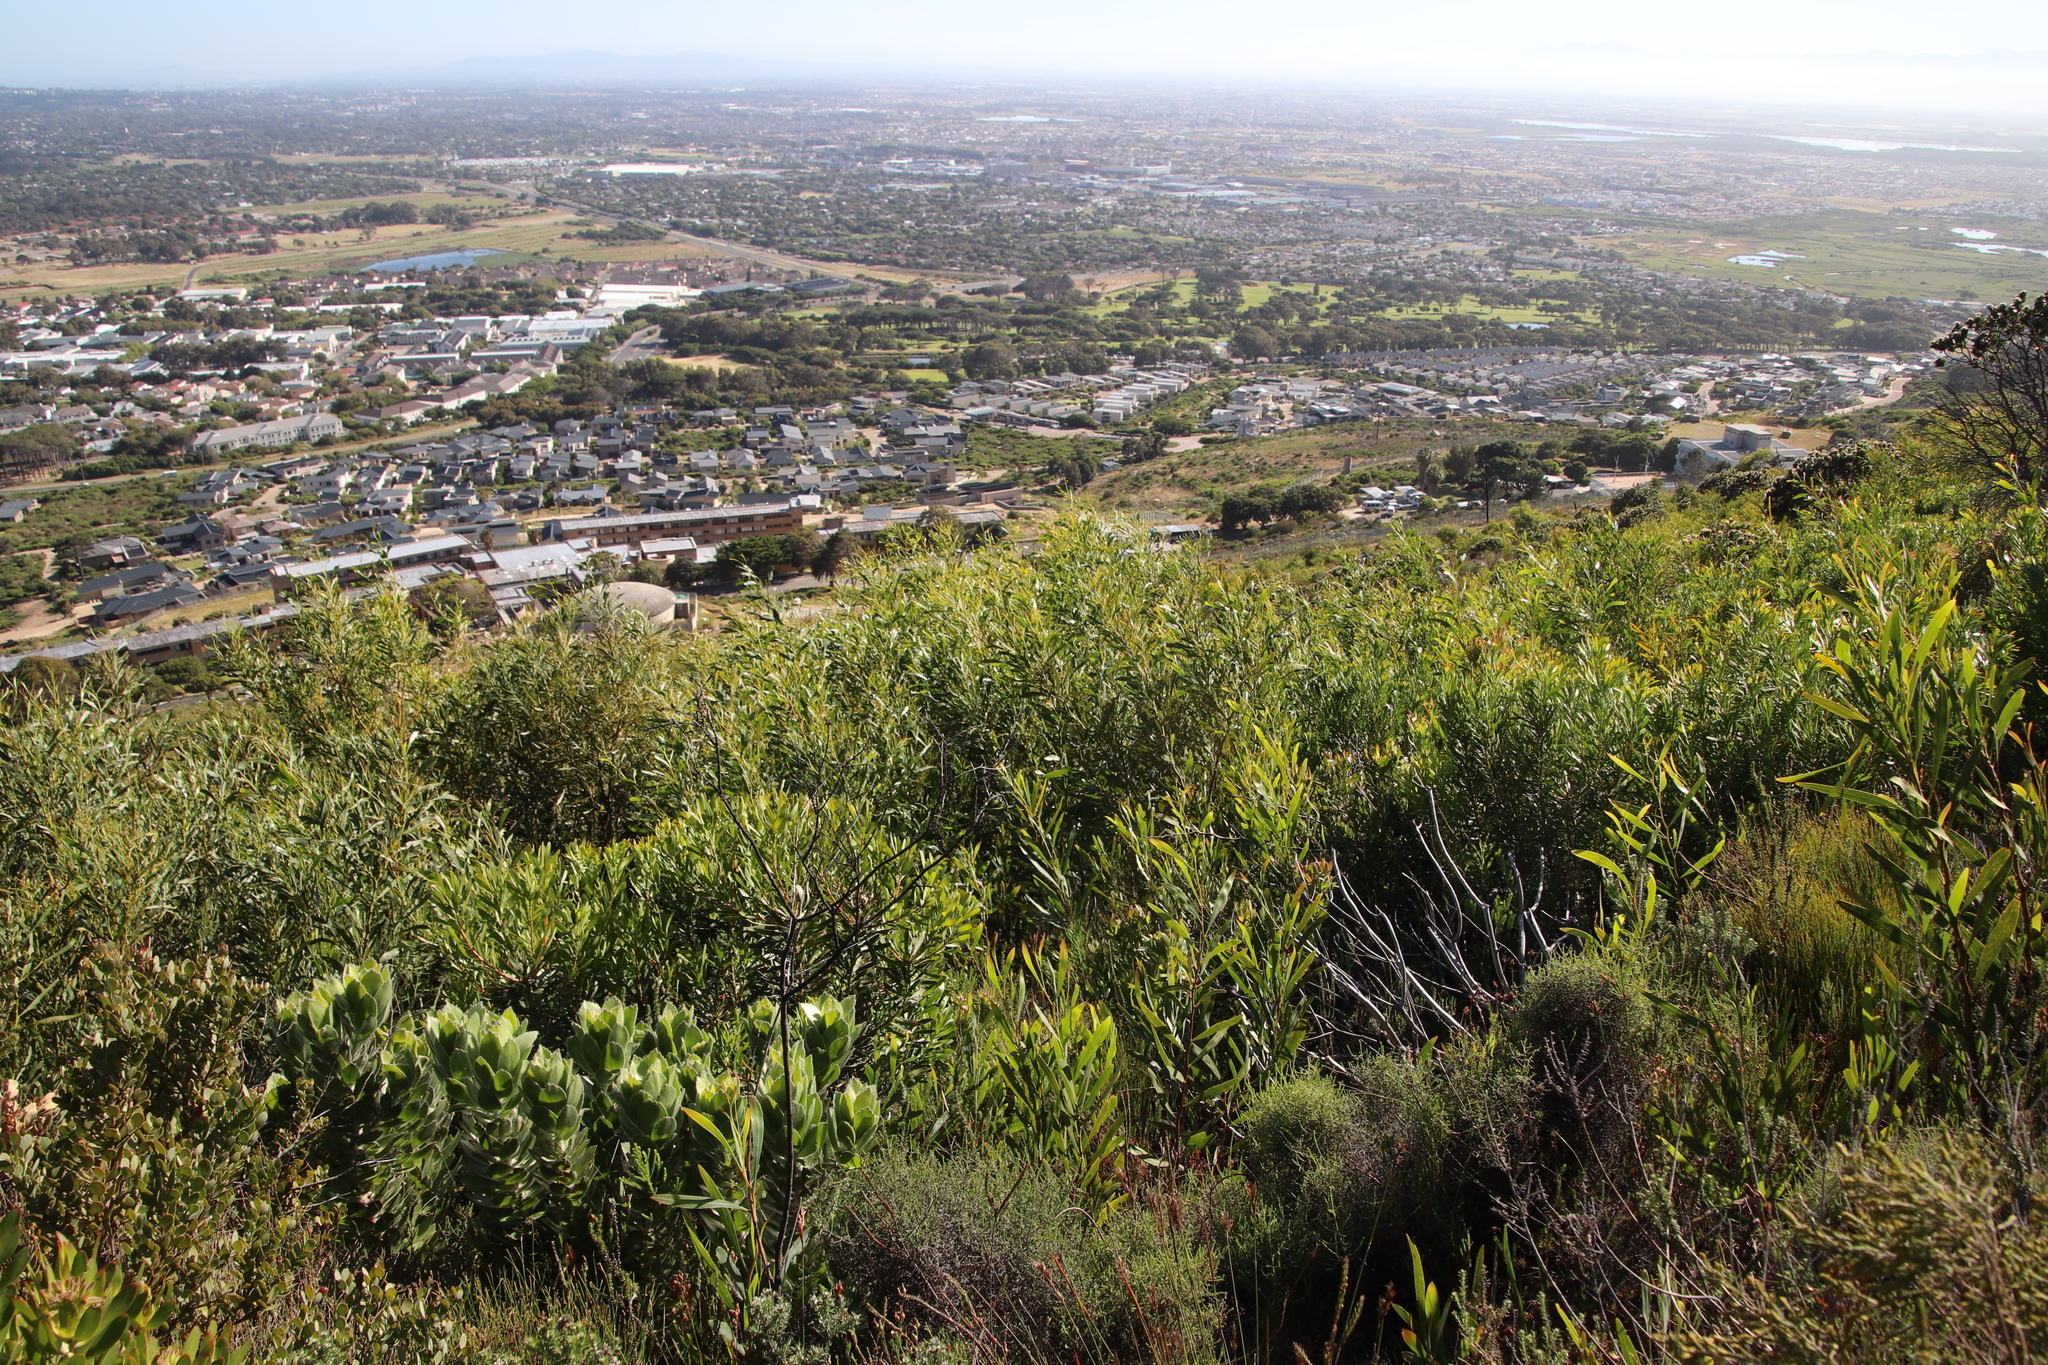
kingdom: Plantae
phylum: Tracheophyta
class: Magnoliopsida
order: Fabales
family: Fabaceae
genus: Acacia
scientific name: Acacia saligna
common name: Orange wattle
